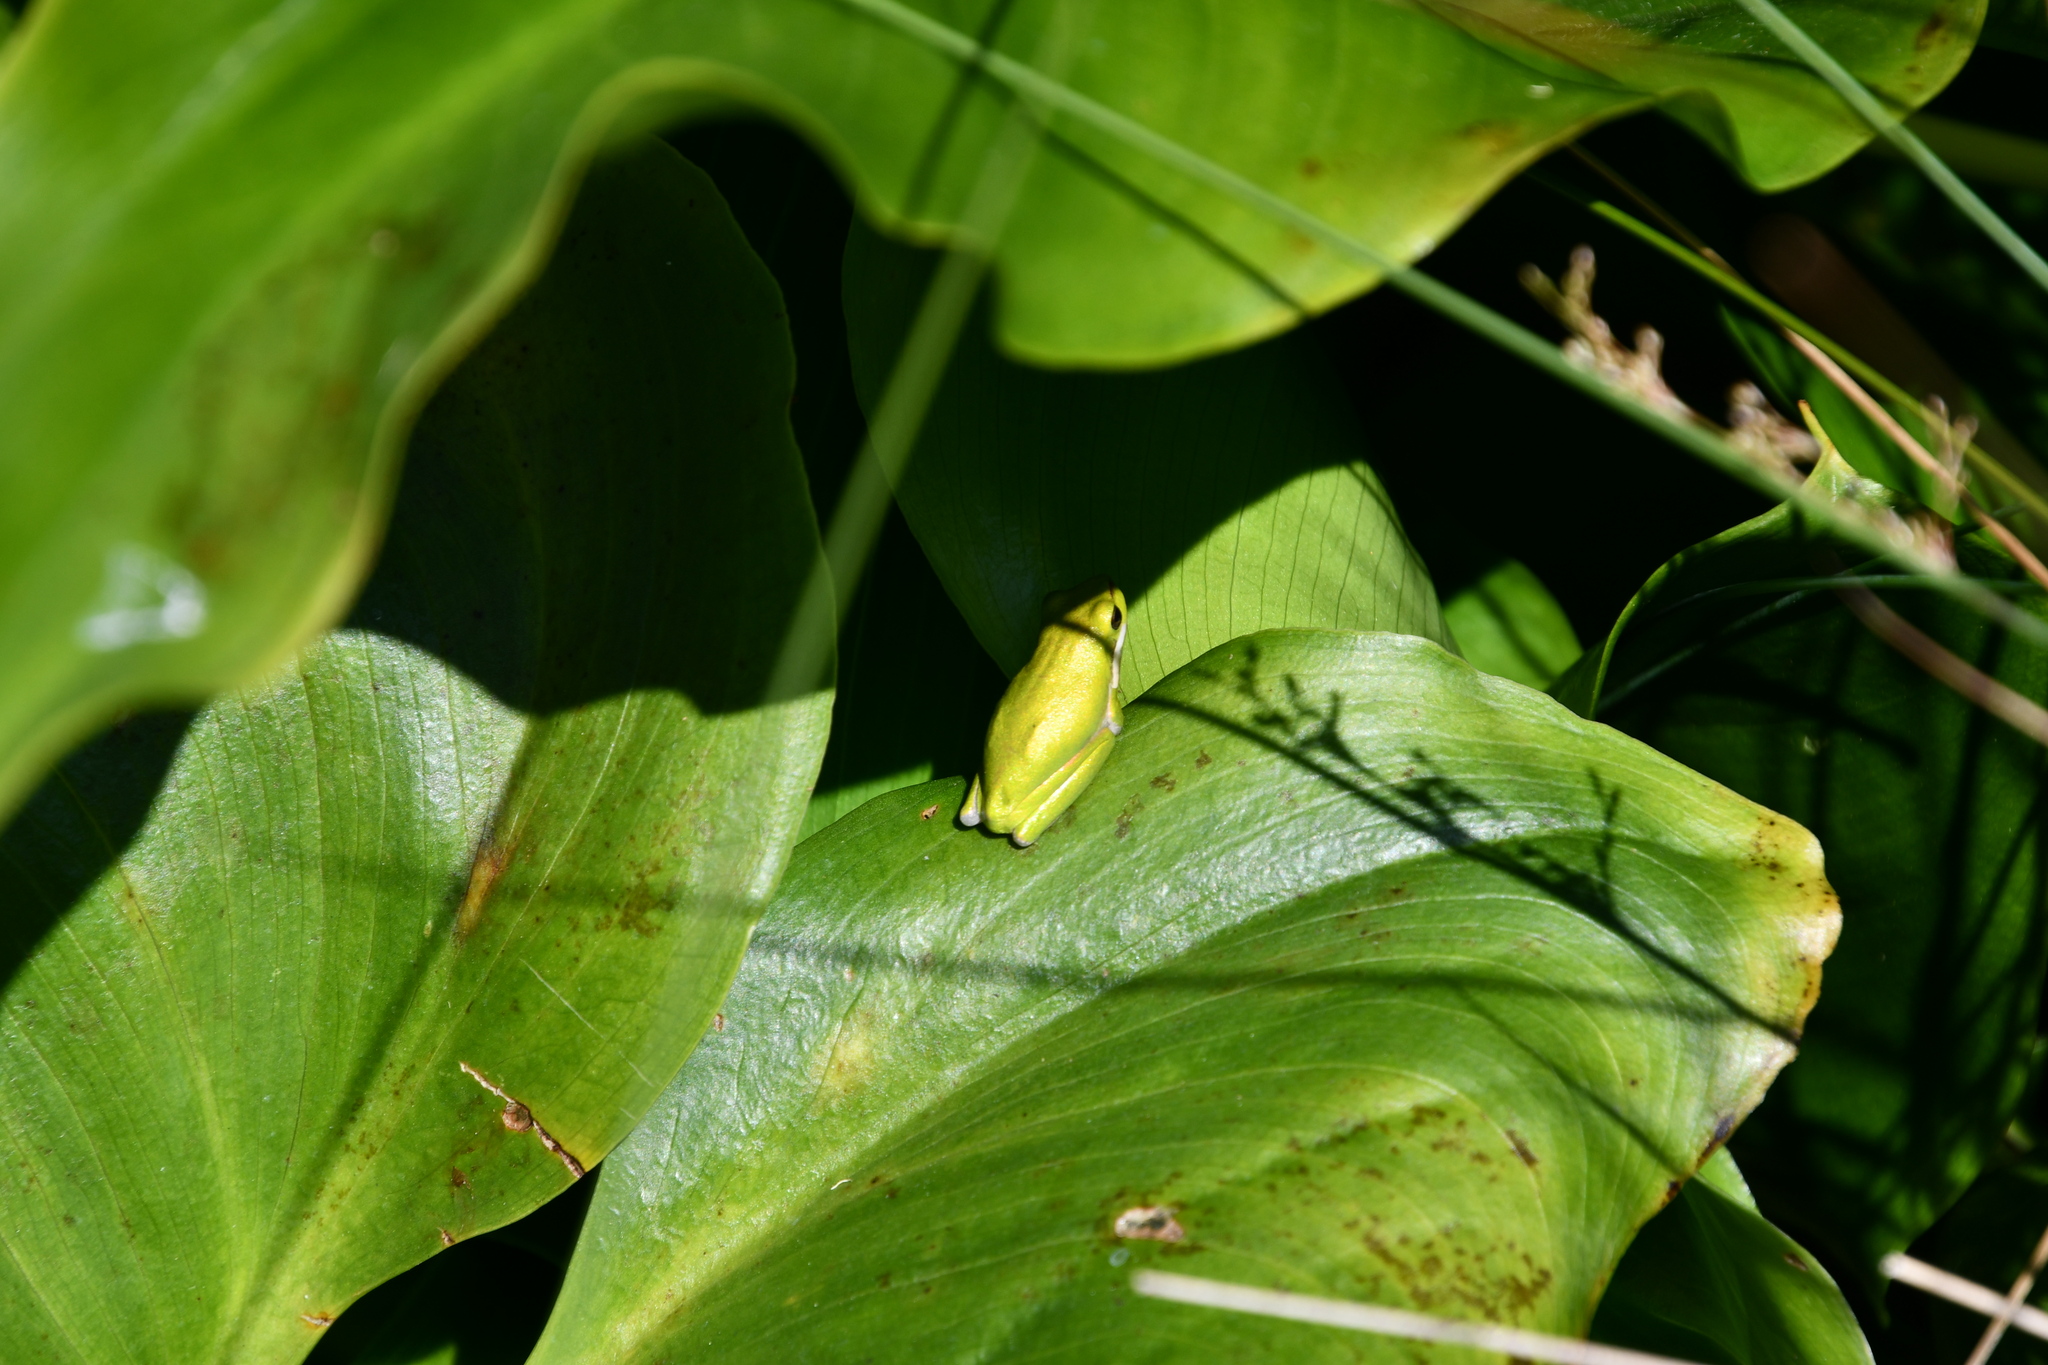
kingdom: Animalia
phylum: Chordata
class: Amphibia
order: Anura
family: Pelodryadidae
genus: Litoria
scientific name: Litoria fallax
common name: Eastern dwarf treefrog
